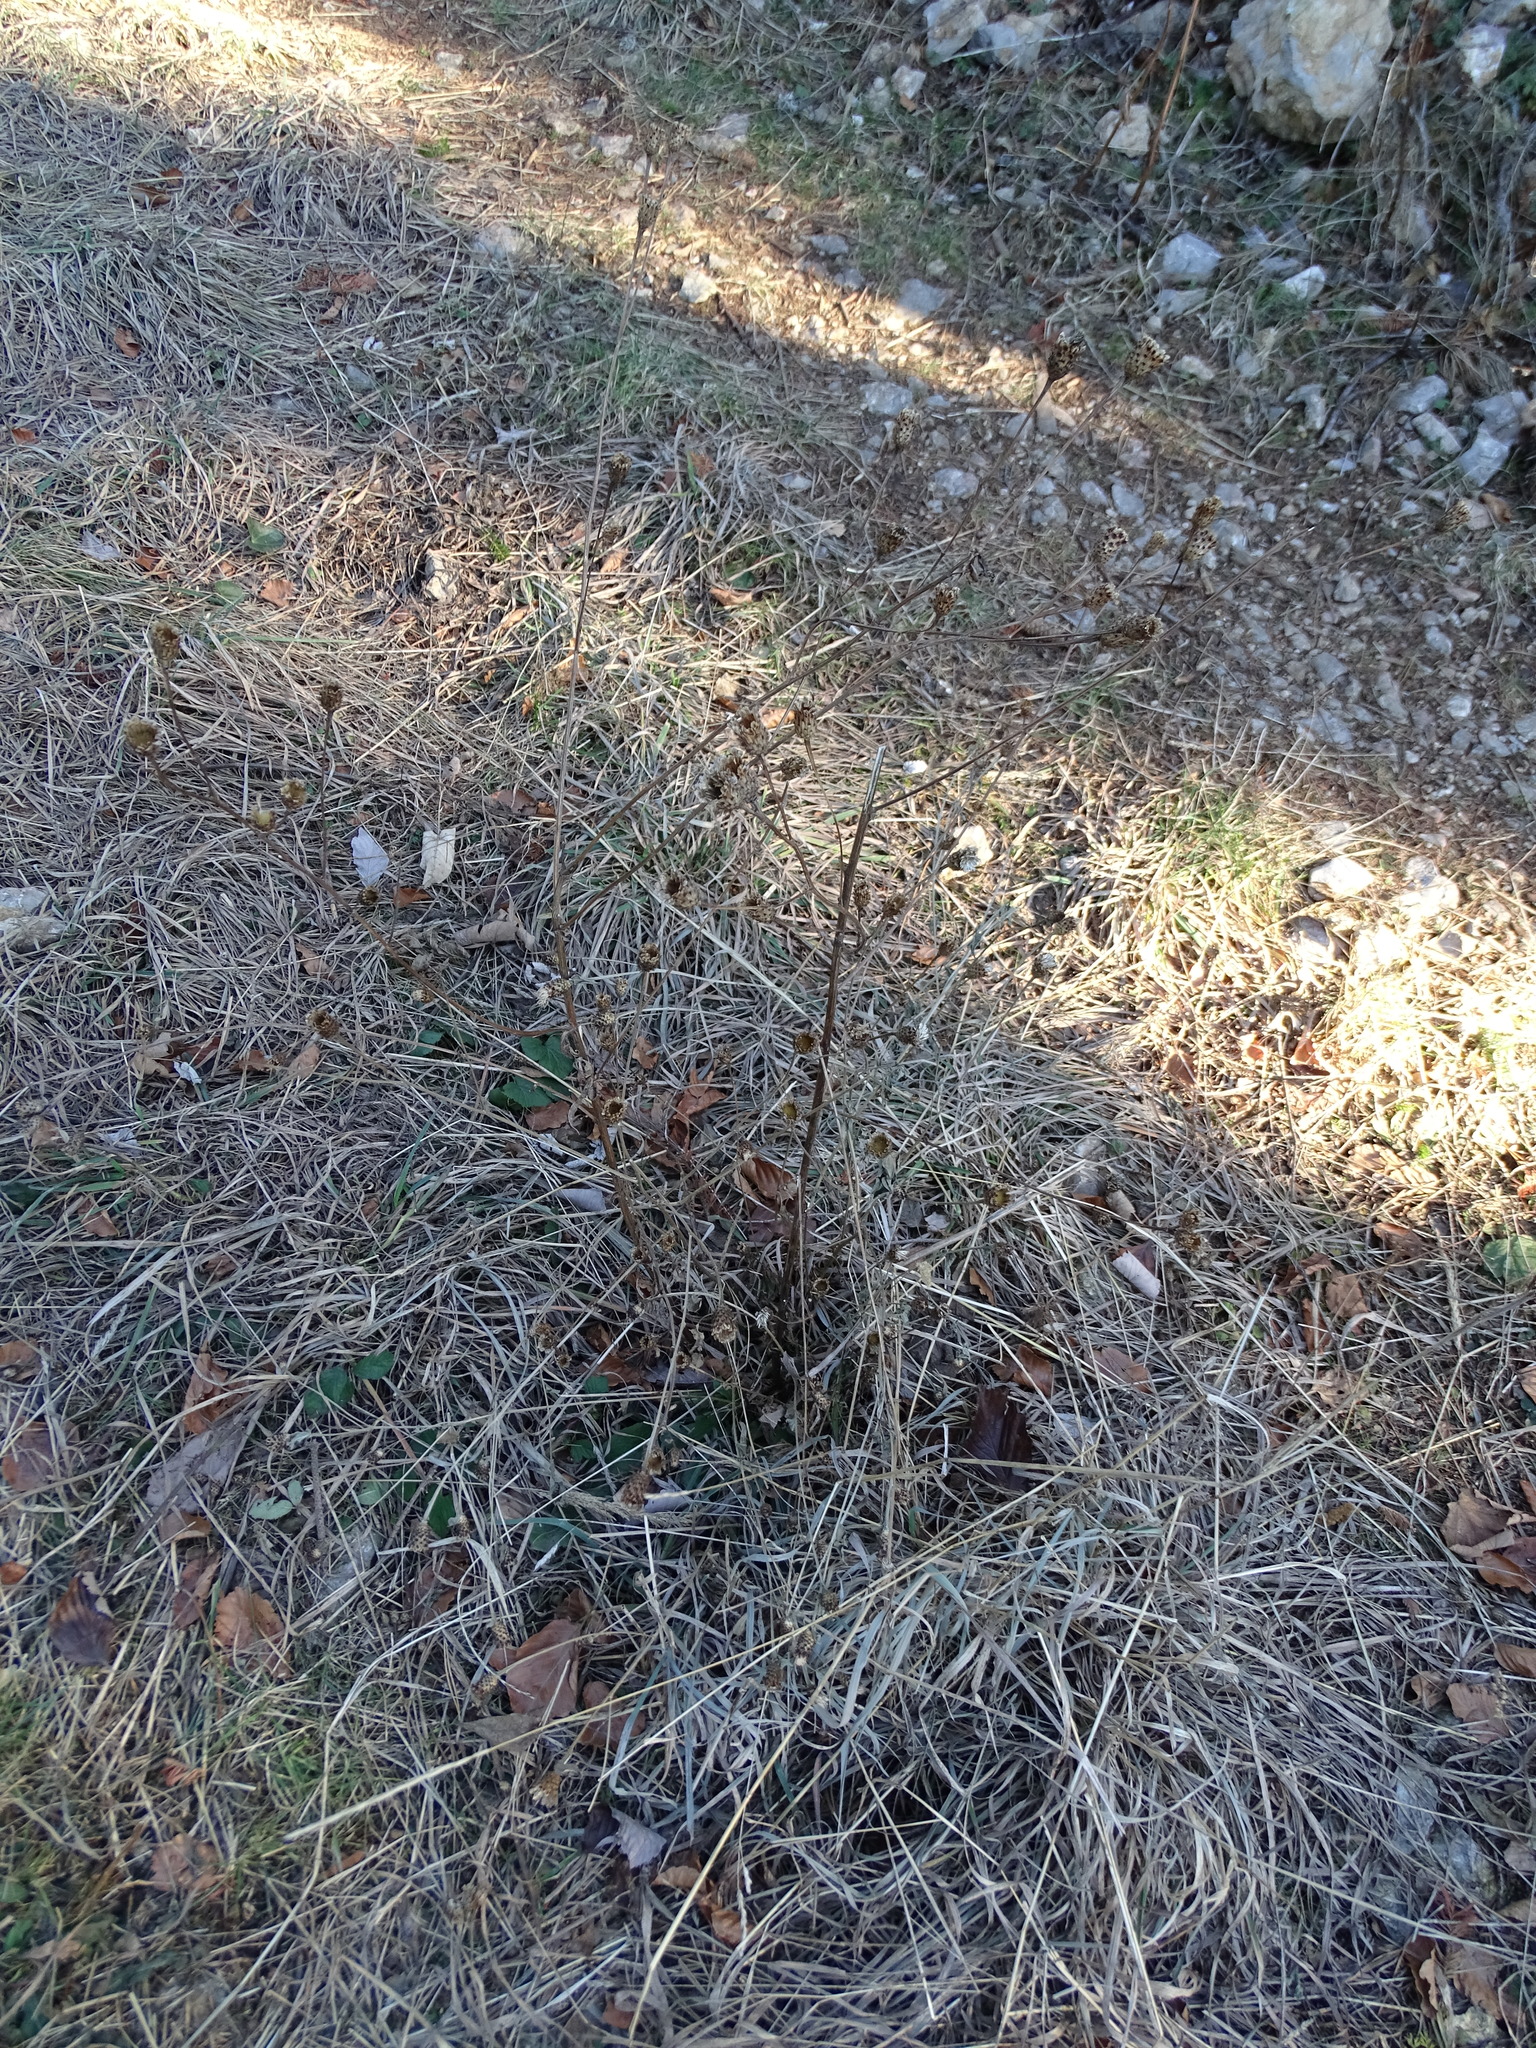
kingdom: Plantae
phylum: Tracheophyta
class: Magnoliopsida
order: Asterales
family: Asteraceae
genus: Centaurea
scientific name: Centaurea nigrescens
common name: Tyrol knapweed
